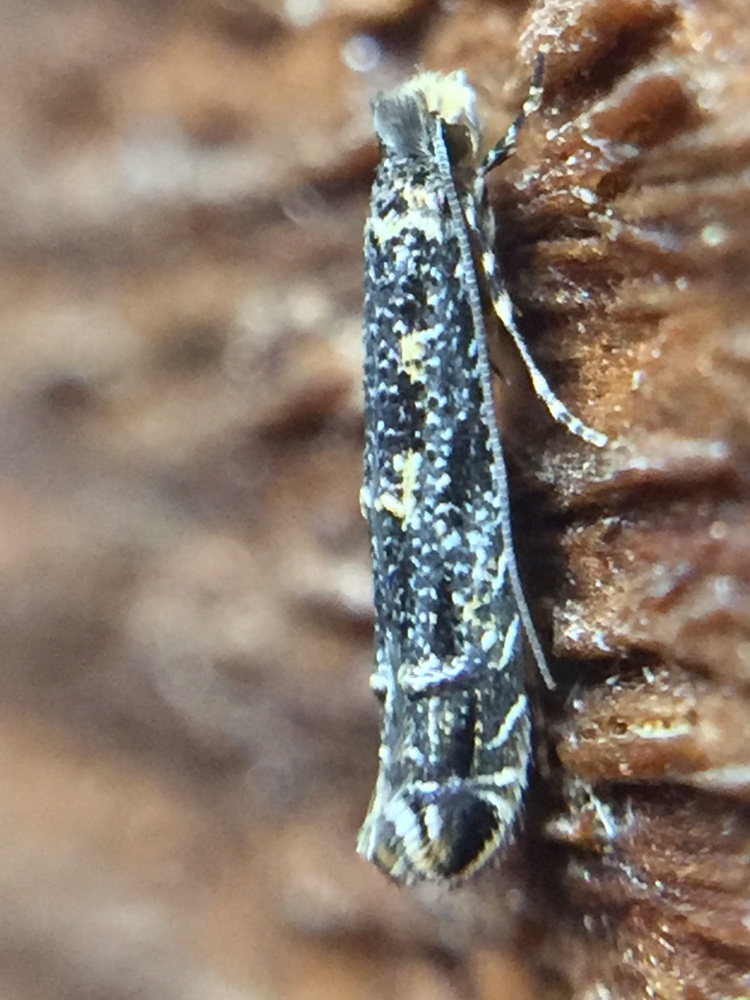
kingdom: Animalia
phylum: Arthropoda
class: Insecta
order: Lepidoptera
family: Meessiidae
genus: Oenoe
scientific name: Oenoe
